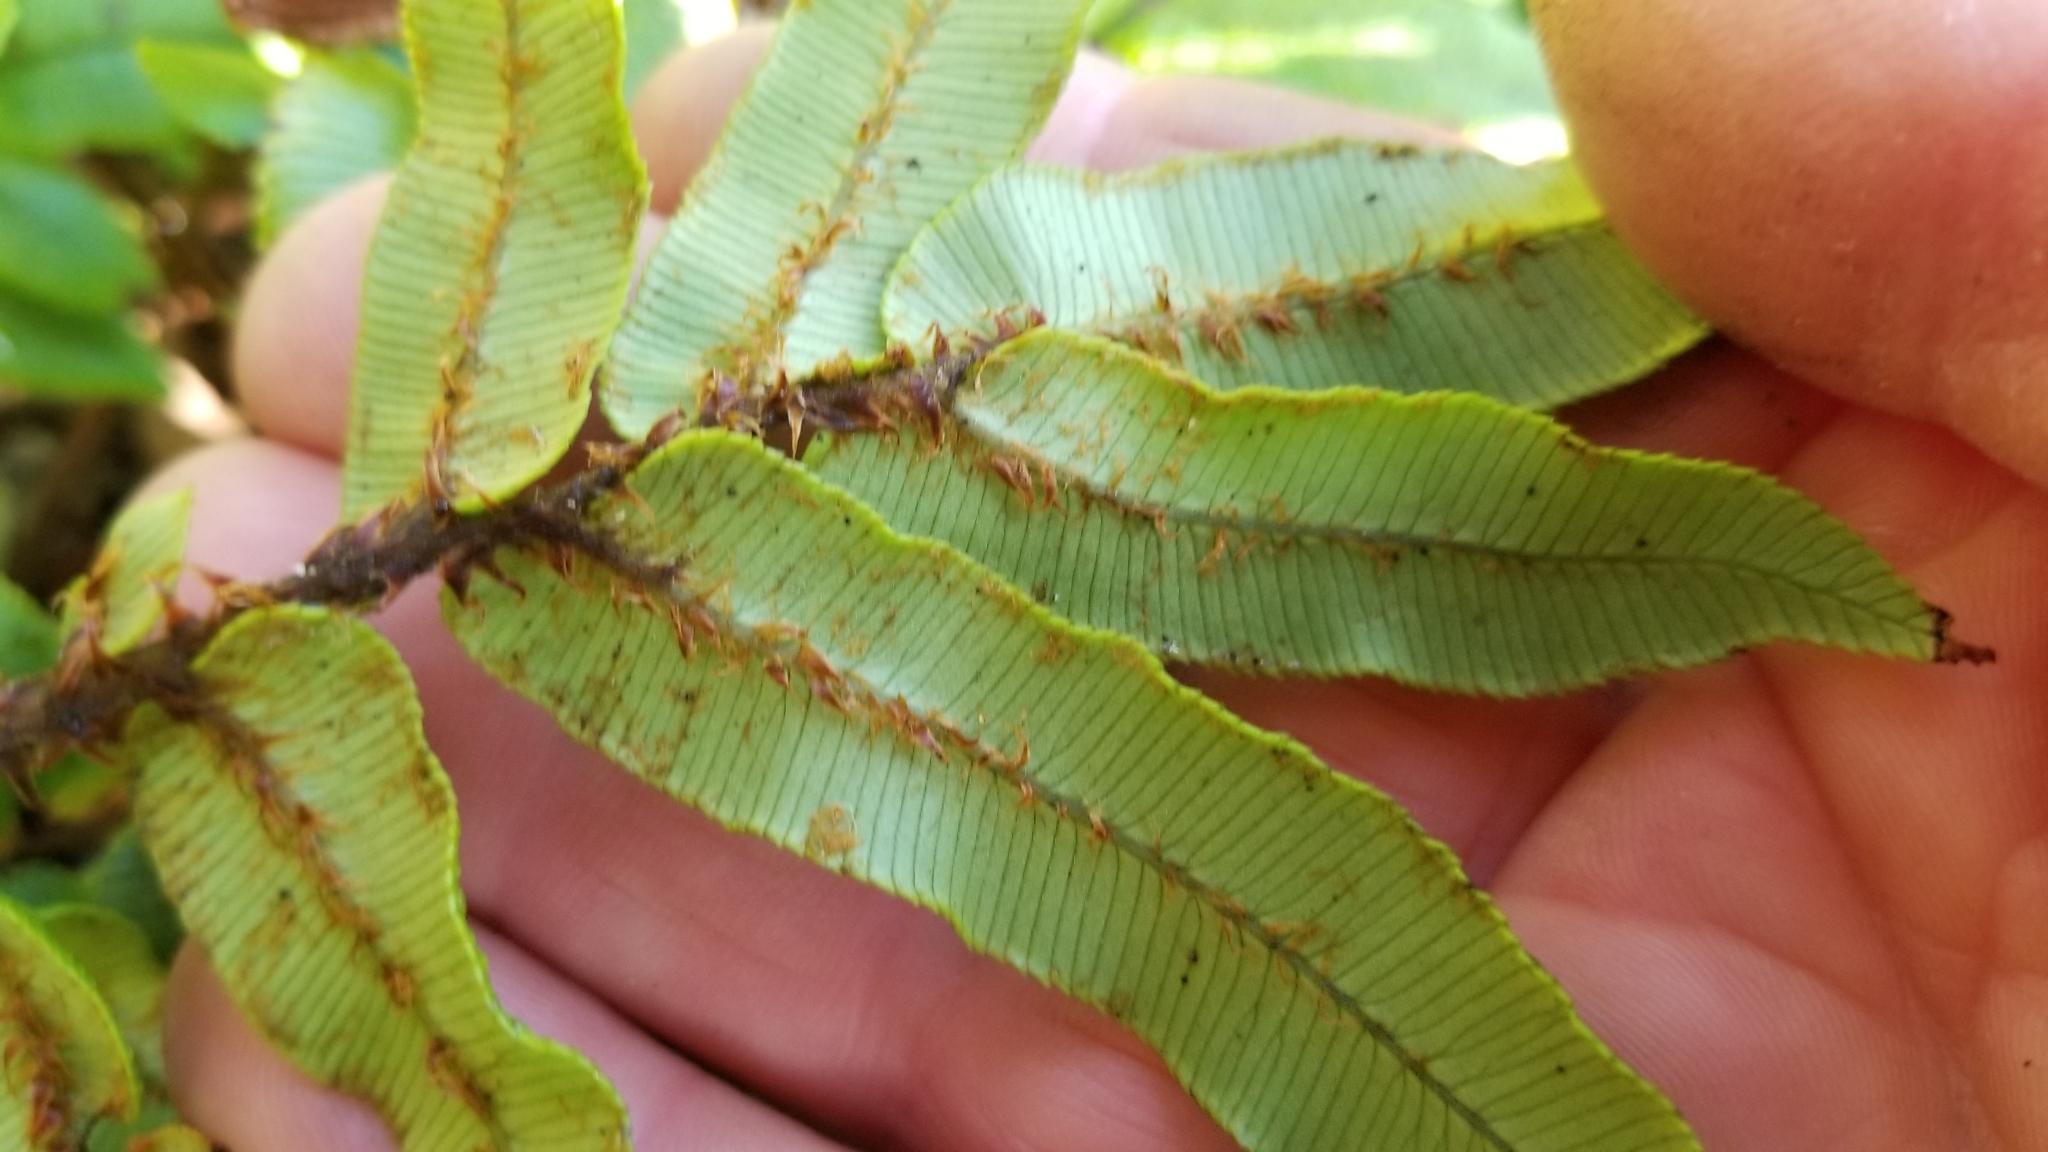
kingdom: Plantae
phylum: Tracheophyta
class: Polypodiopsida
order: Polypodiales
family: Blechnaceae
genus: Parablechnum
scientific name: Parablechnum procerum
